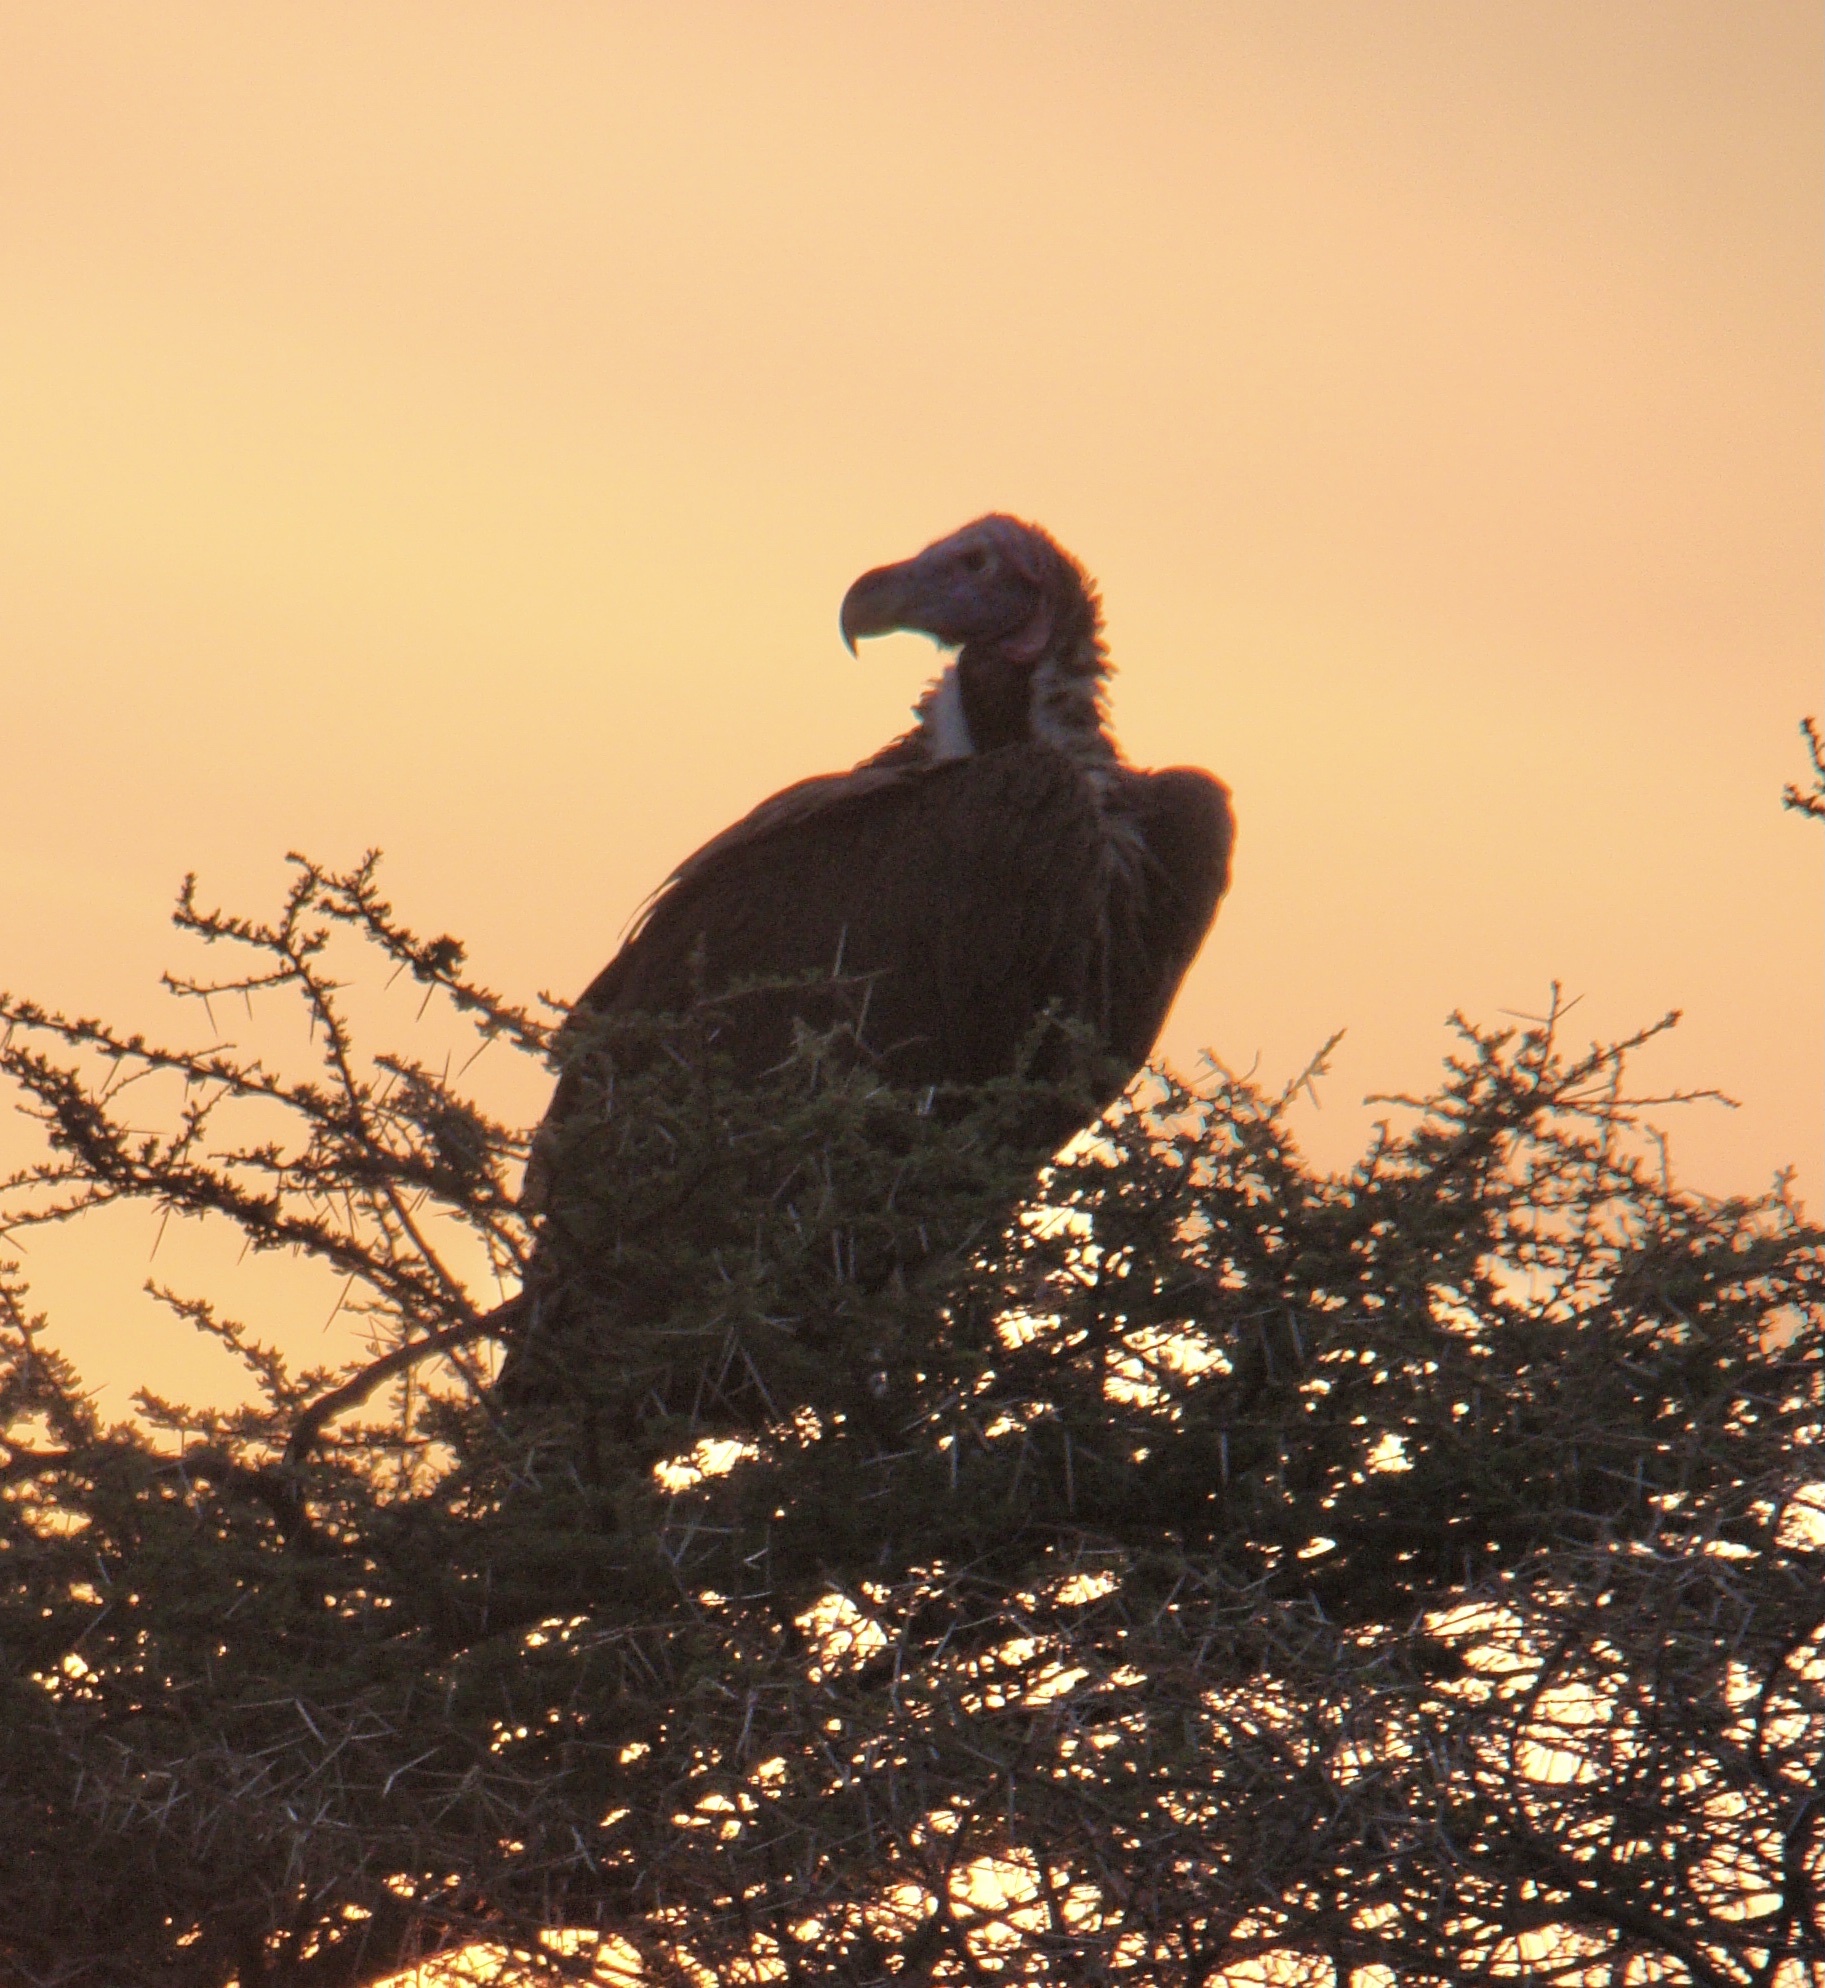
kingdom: Animalia
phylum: Chordata
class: Aves
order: Accipitriformes
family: Accipitridae
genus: Torgos
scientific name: Torgos tracheliotos
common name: Lappet-faced vulture
